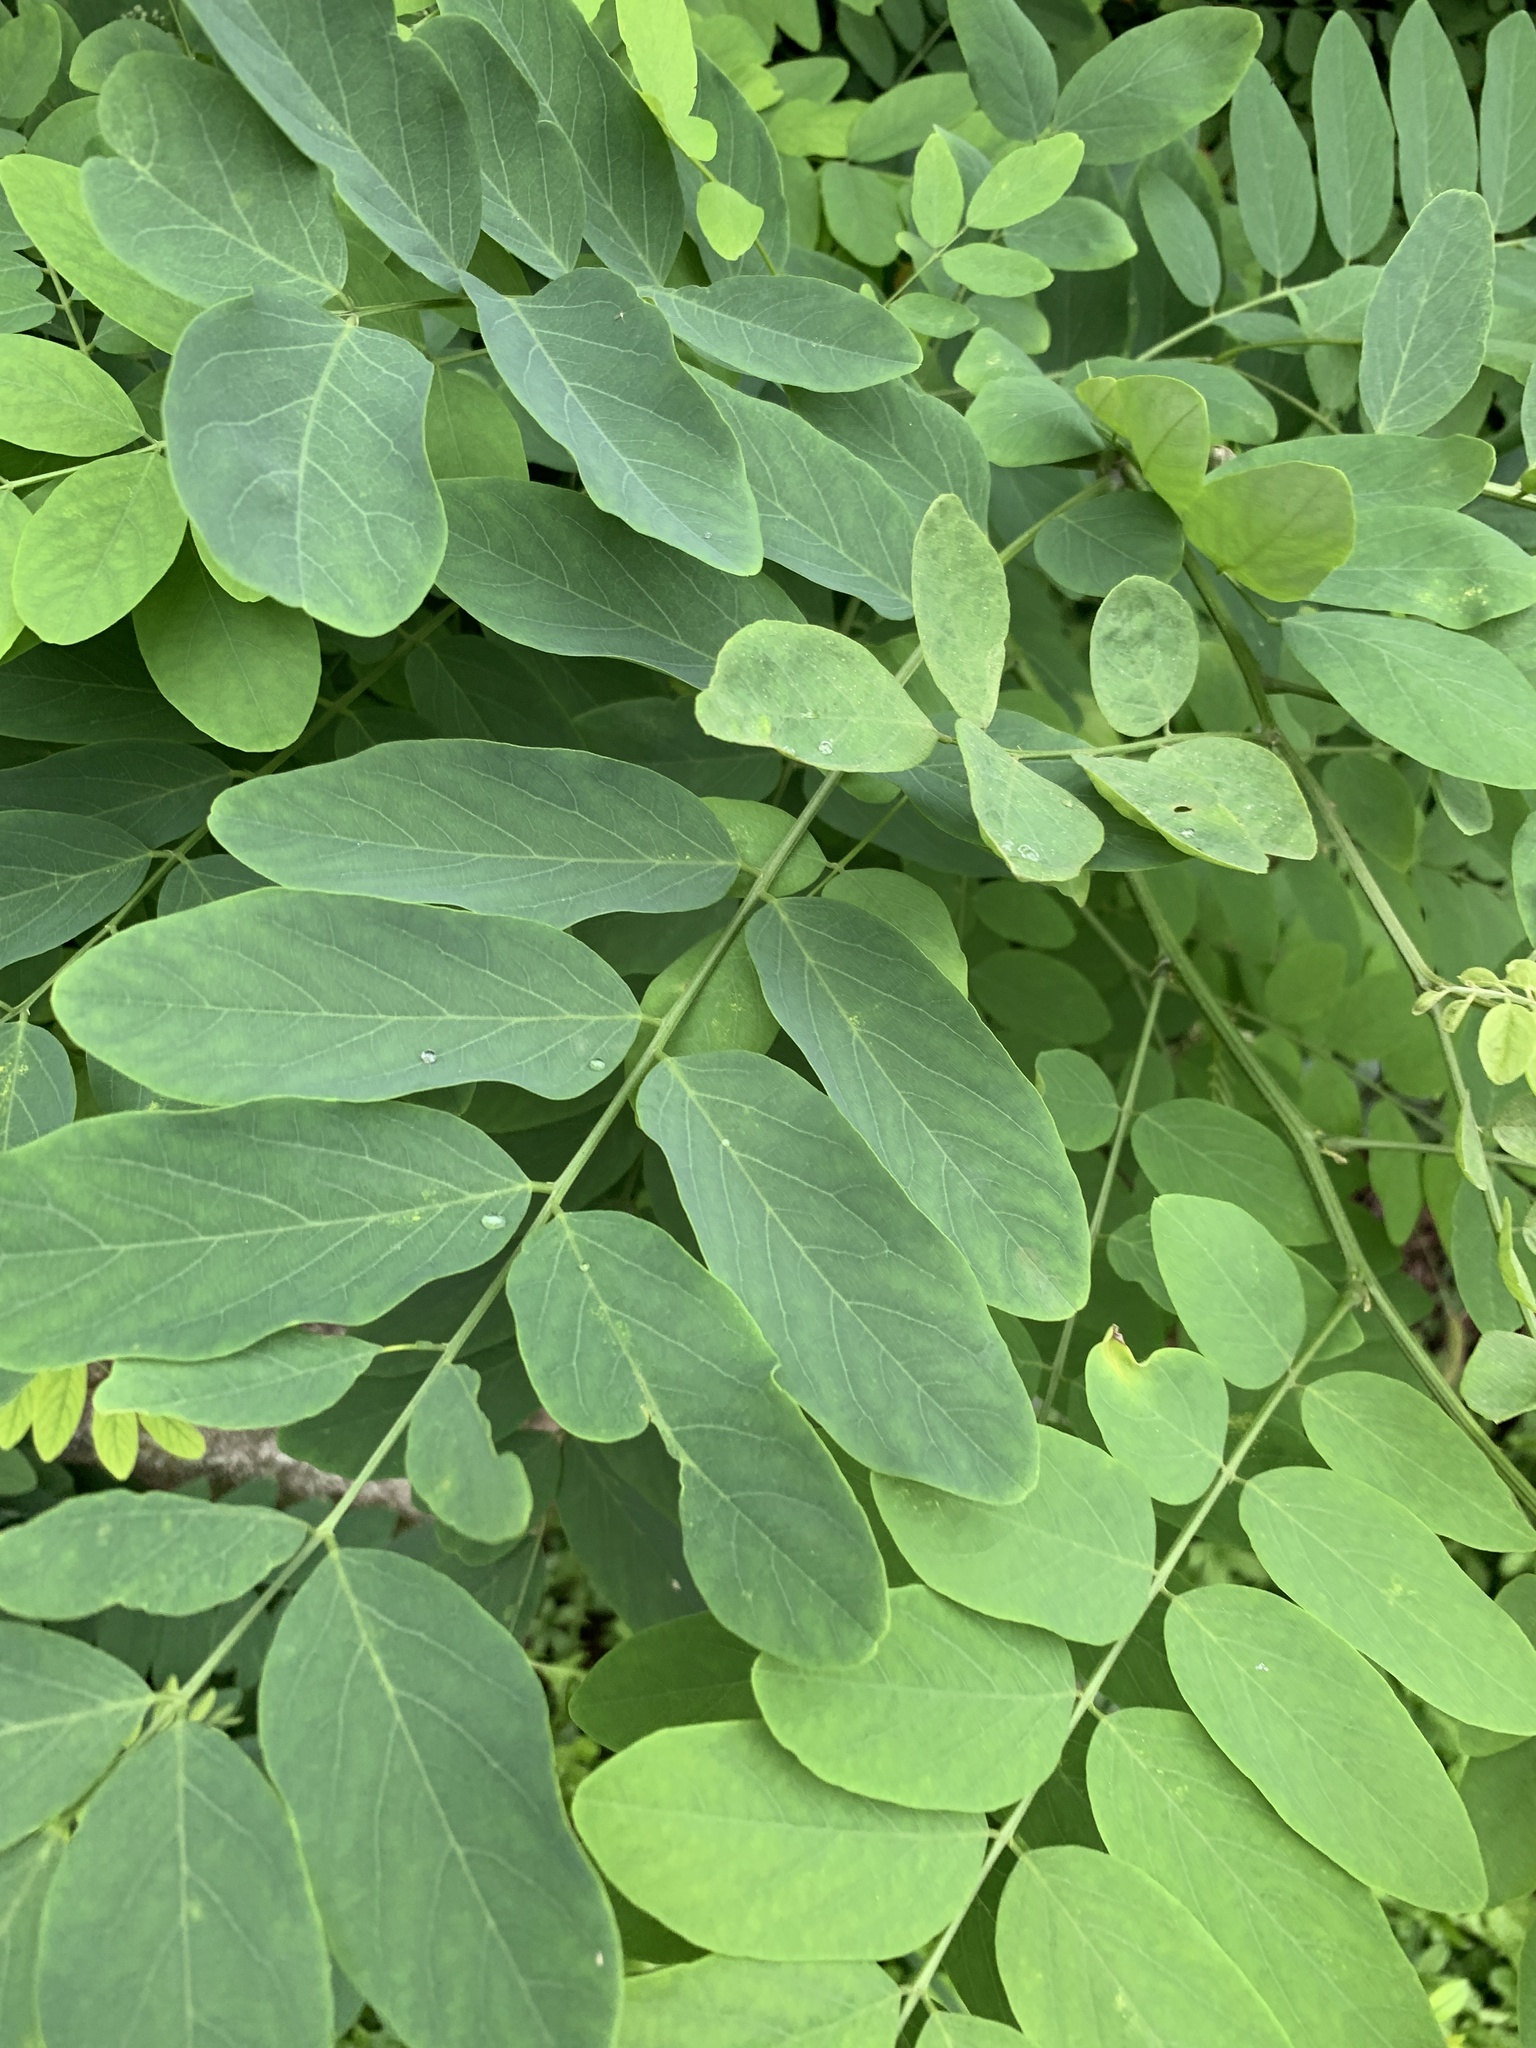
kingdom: Plantae
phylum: Tracheophyta
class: Magnoliopsida
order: Fabales
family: Fabaceae
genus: Robinia
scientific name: Robinia pseudoacacia
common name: Black locust
